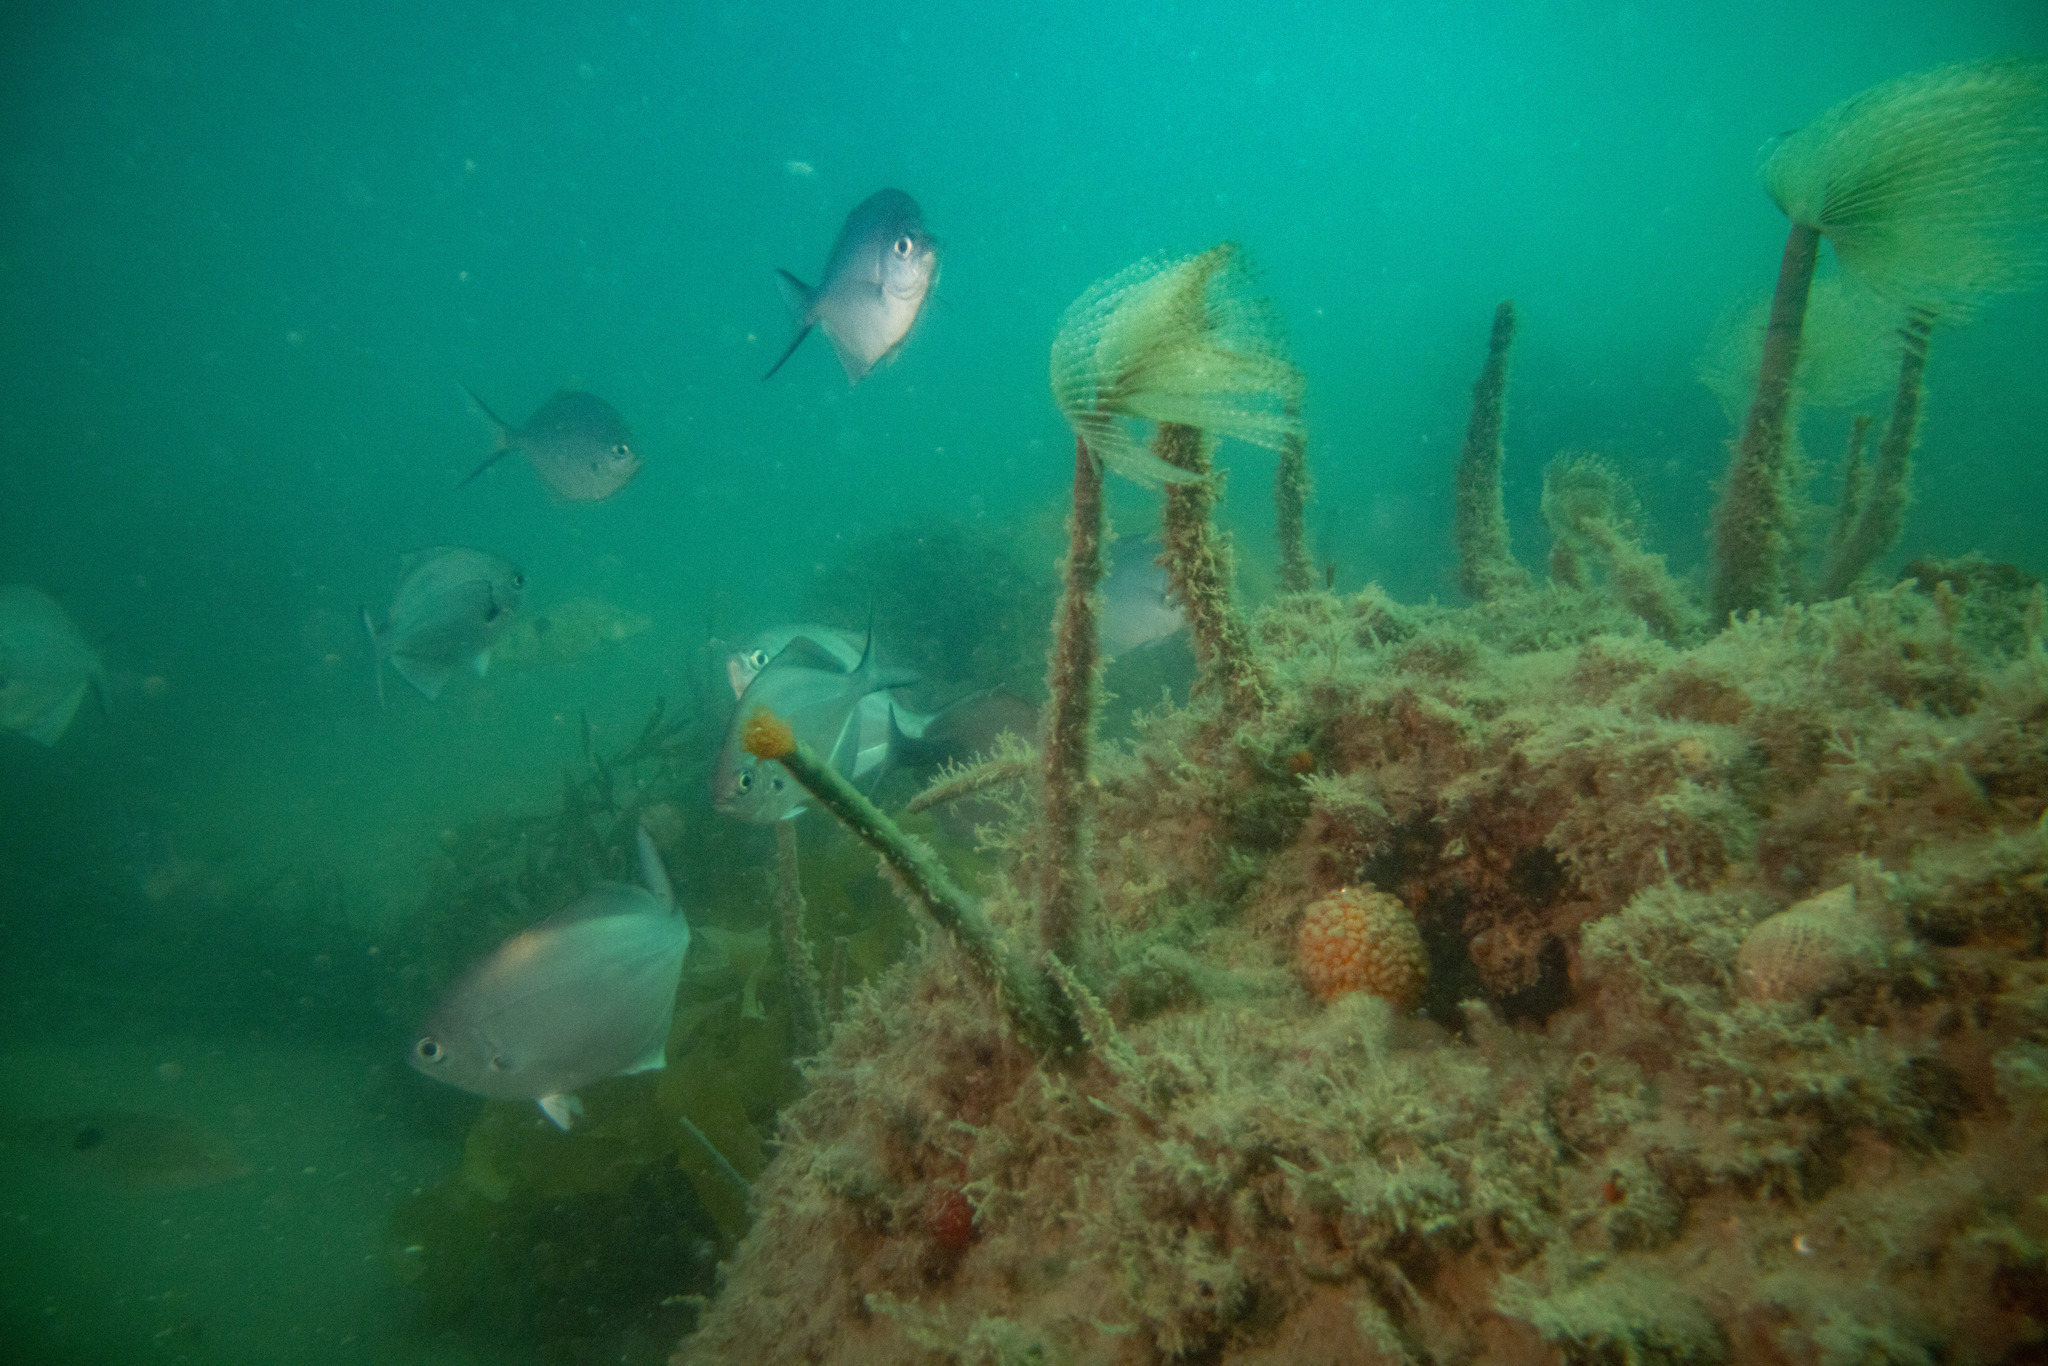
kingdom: Animalia
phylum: Porifera
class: Demospongiae
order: Tethyida
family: Tethyidae
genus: Tethya
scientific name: Tethya burtoni
